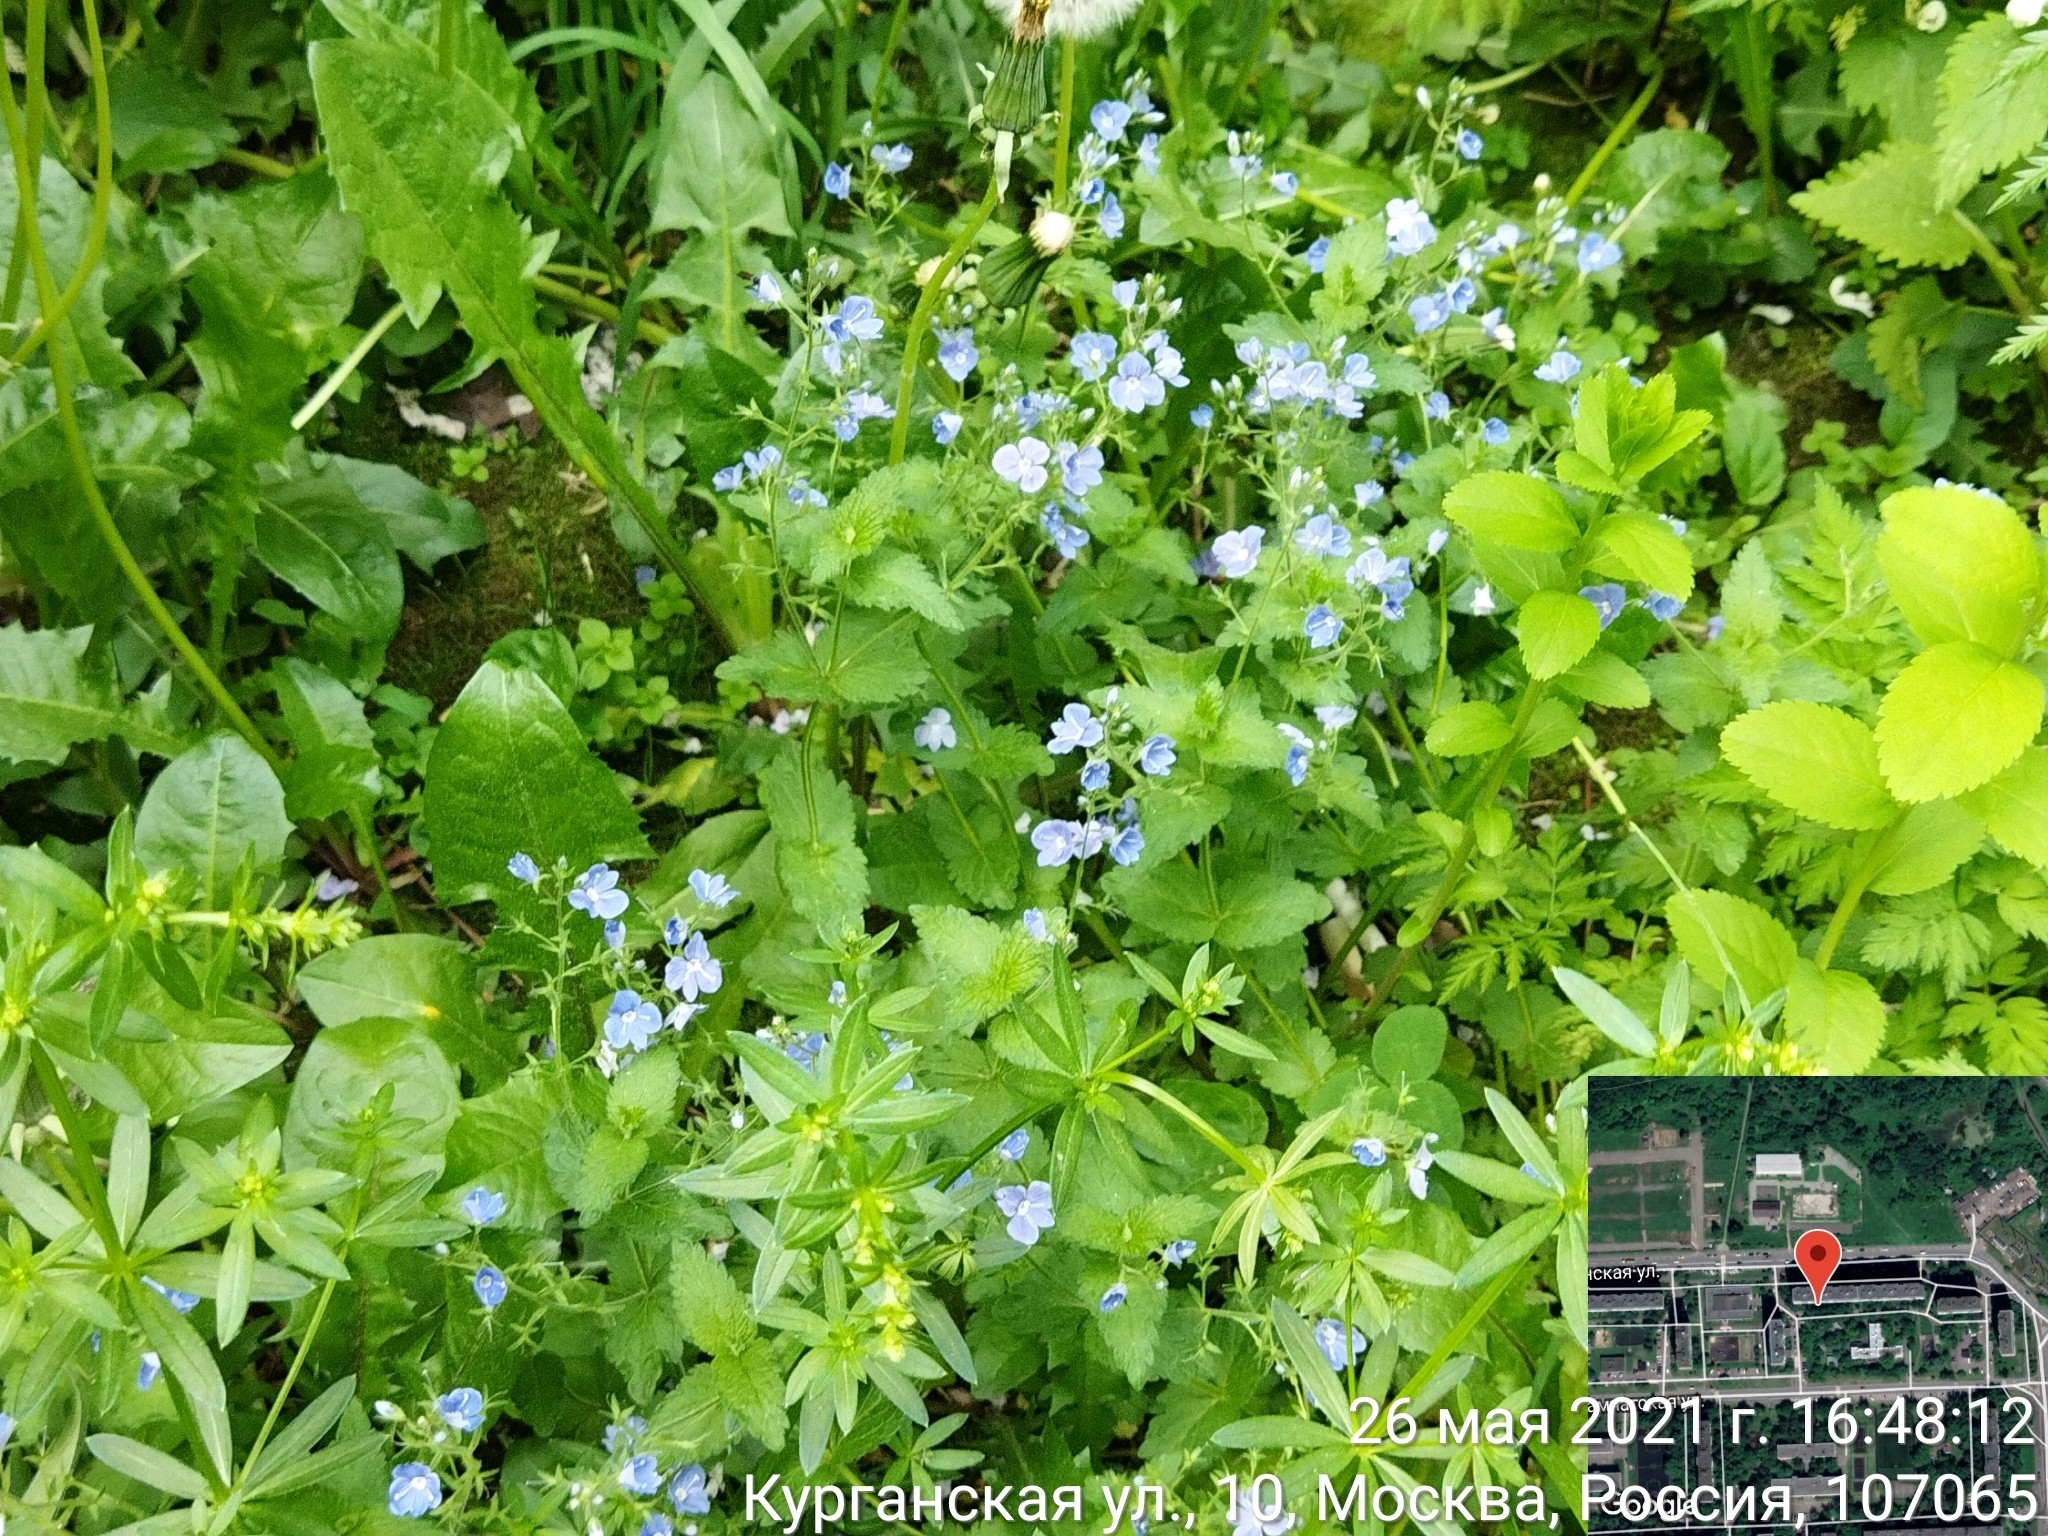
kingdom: Plantae
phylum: Tracheophyta
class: Magnoliopsida
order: Lamiales
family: Plantaginaceae
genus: Veronica
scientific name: Veronica chamaedrys
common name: Germander speedwell
